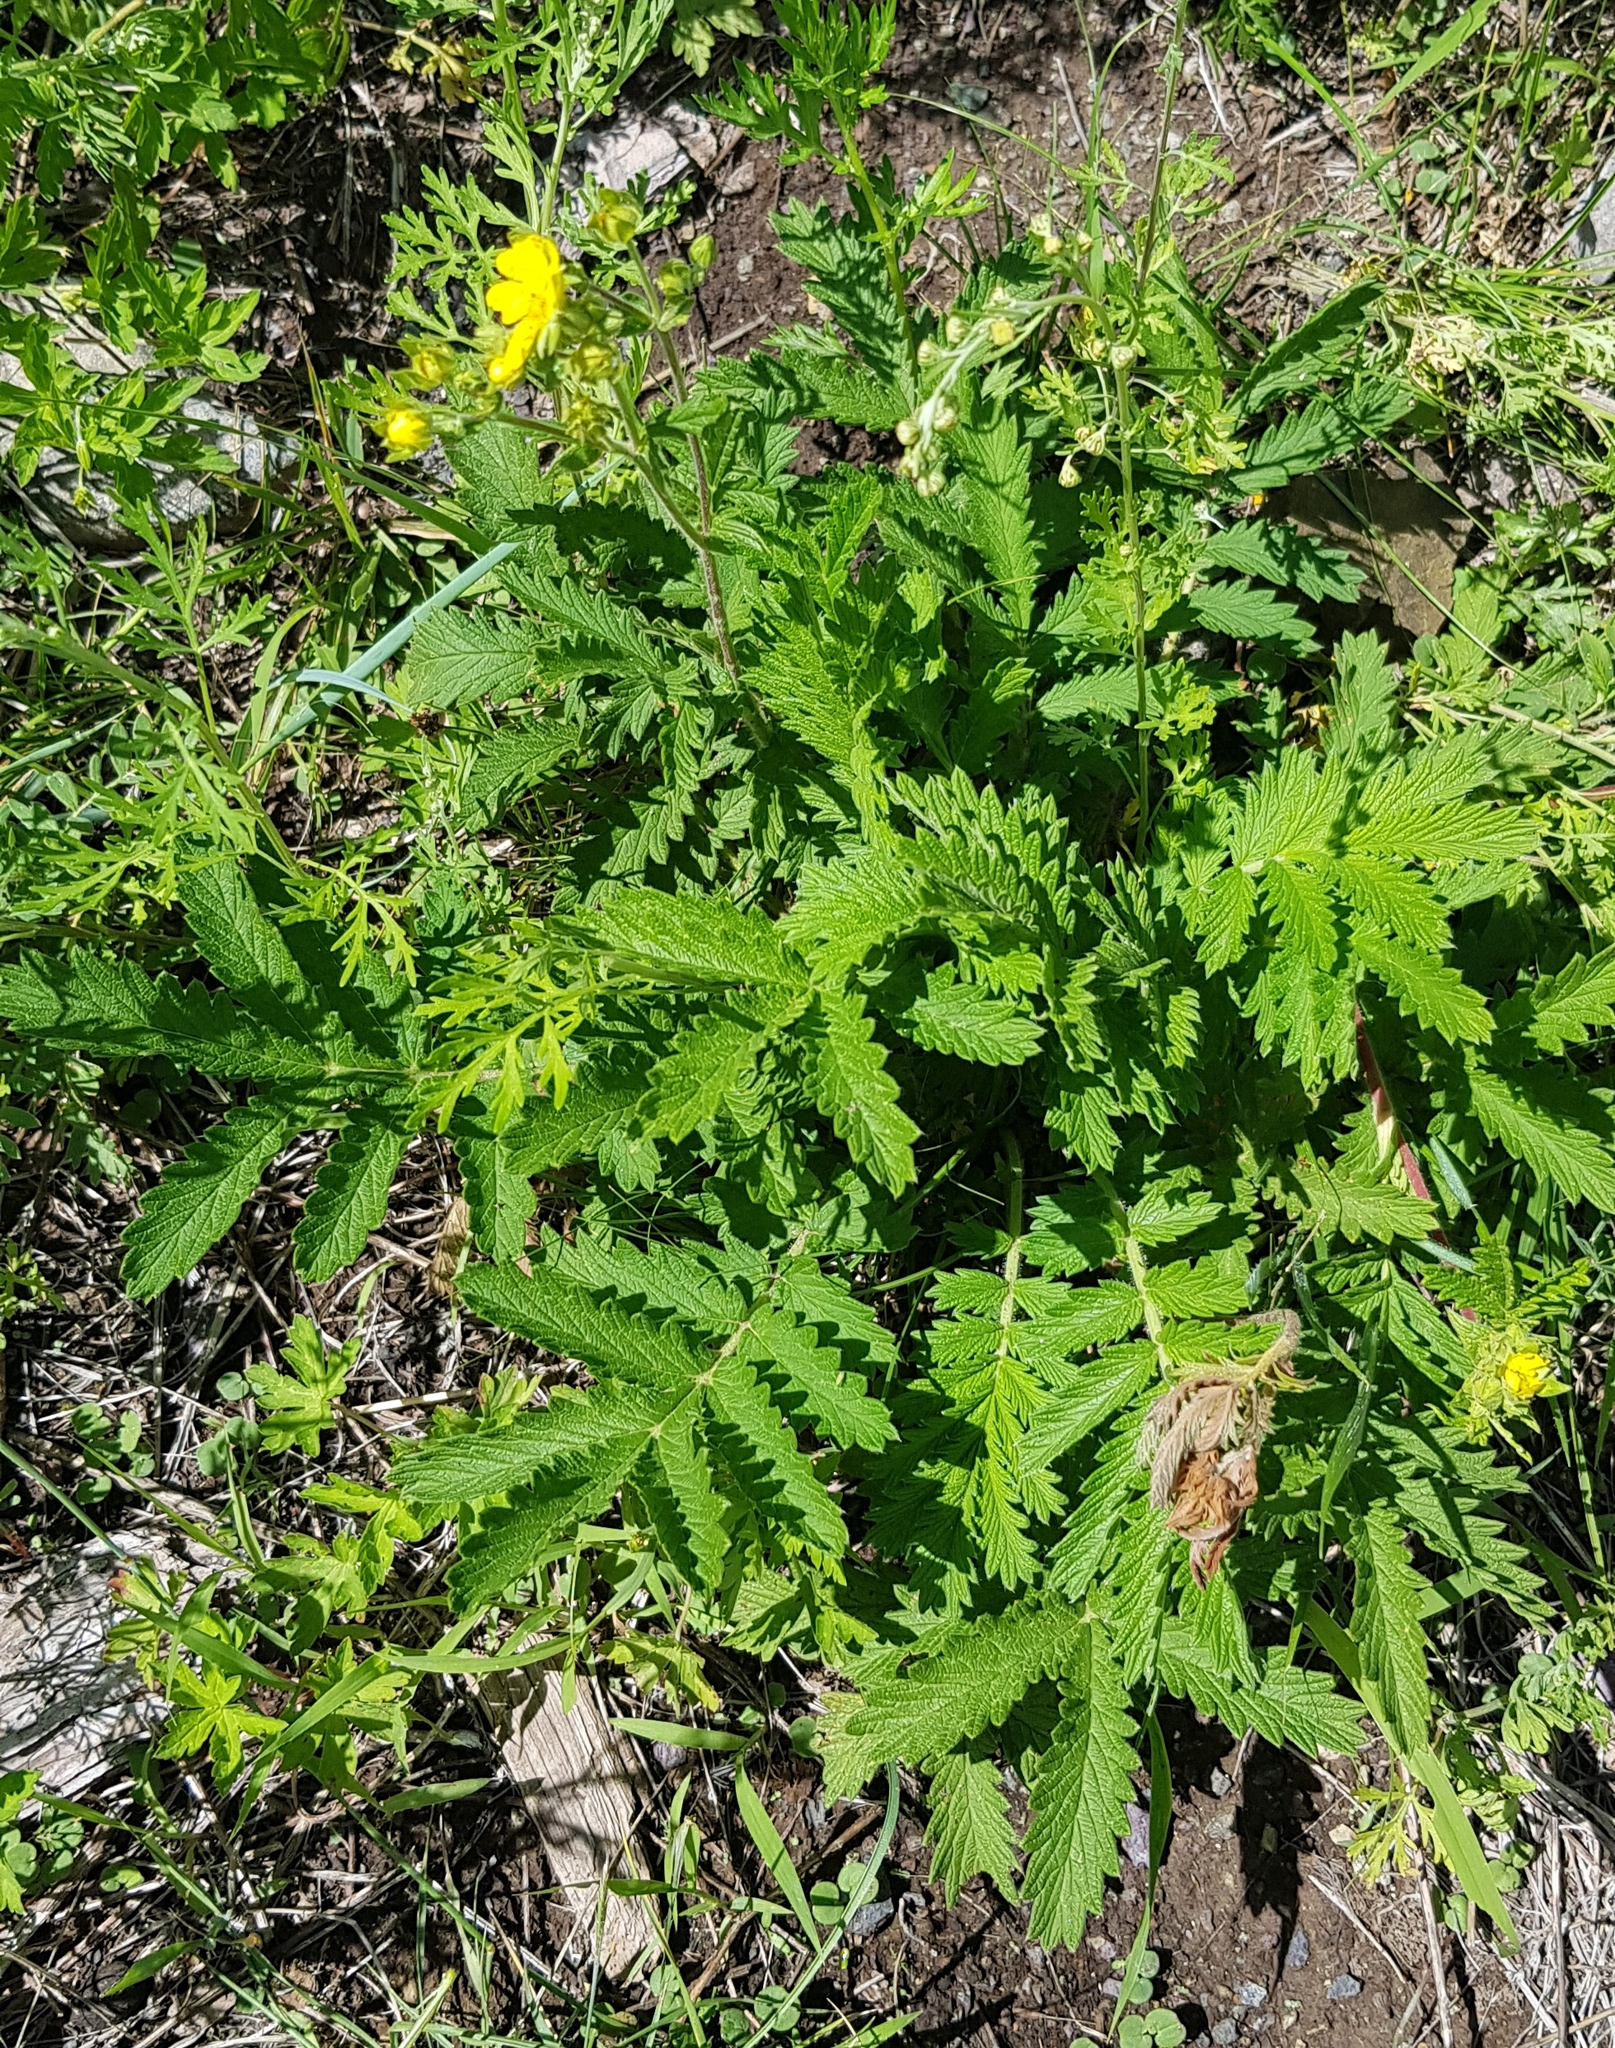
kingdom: Plantae
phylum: Tracheophyta
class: Magnoliopsida
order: Rosales
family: Rosaceae
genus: Potentilla
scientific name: Potentilla tanacetifolia
